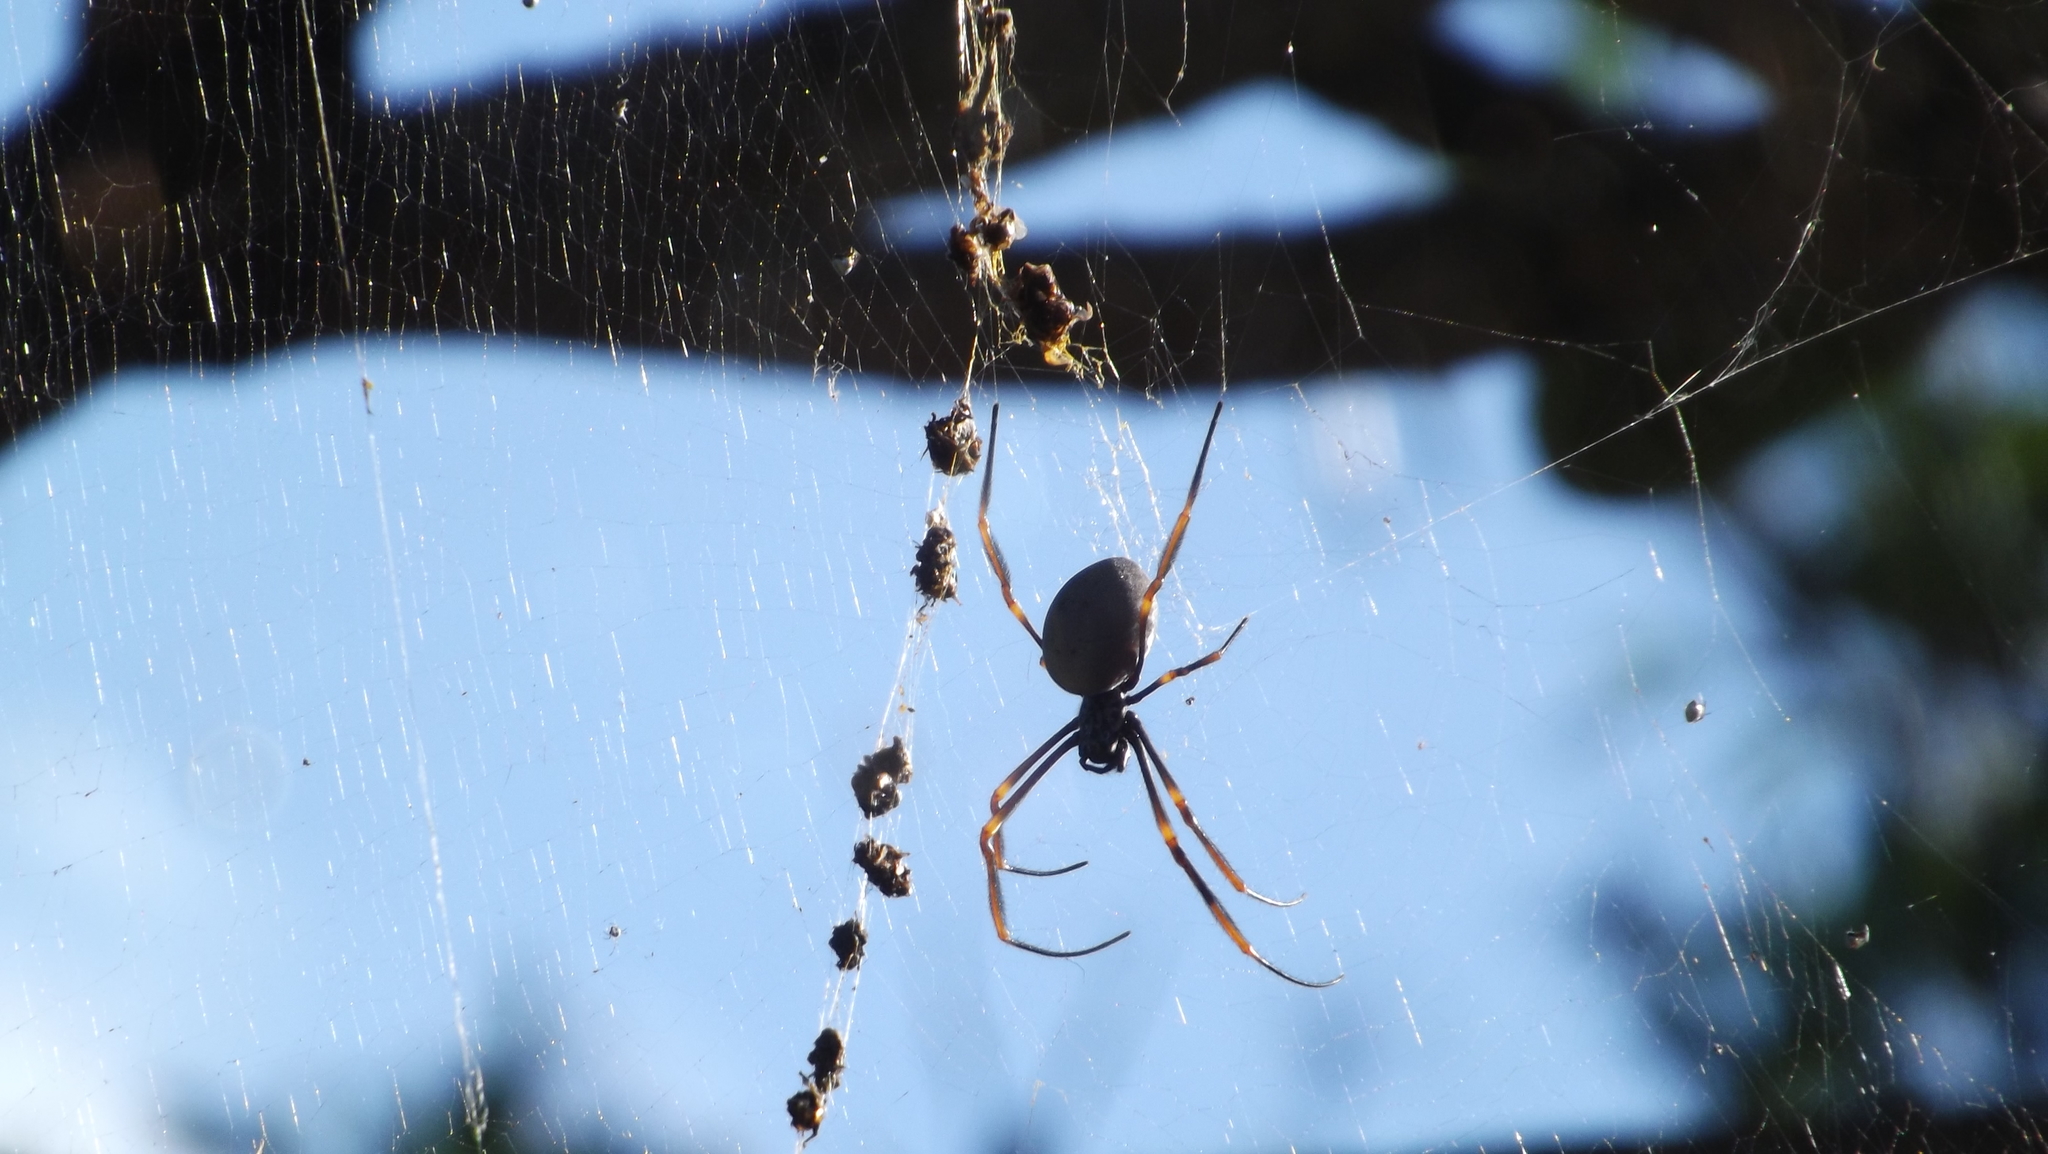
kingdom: Animalia
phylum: Arthropoda
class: Arachnida
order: Araneae
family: Araneidae
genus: Trichonephila
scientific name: Trichonephila plumipes
